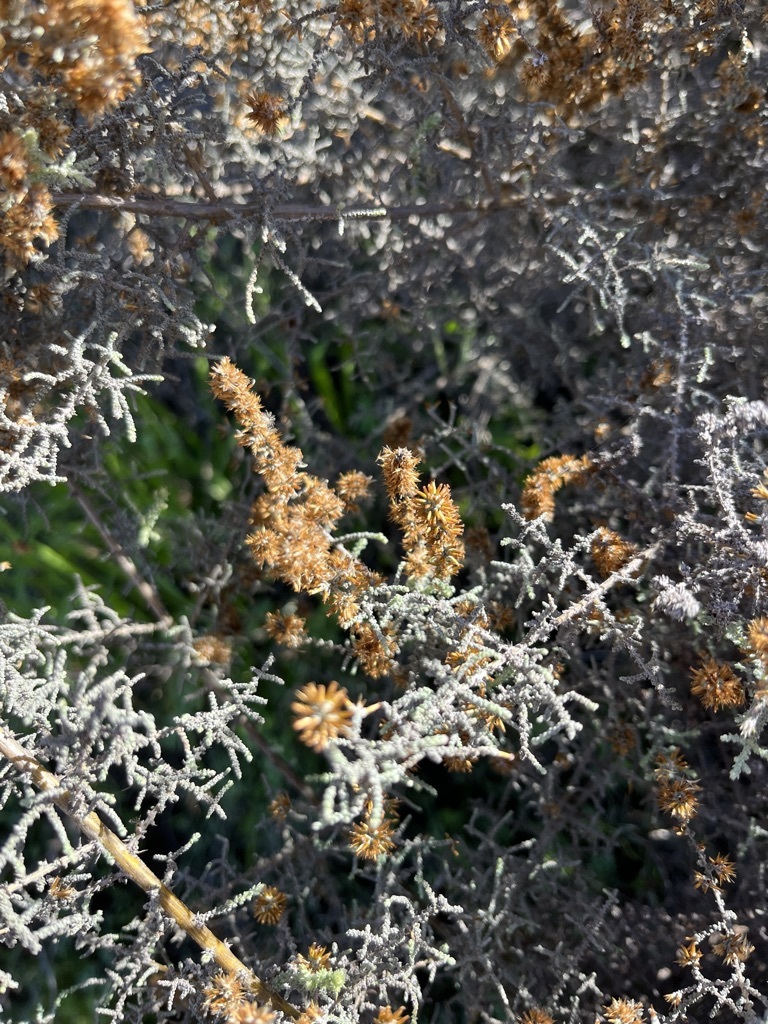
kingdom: Plantae
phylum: Tracheophyta
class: Magnoliopsida
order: Asterales
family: Asteraceae
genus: Seriphium
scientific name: Seriphium plumosum
